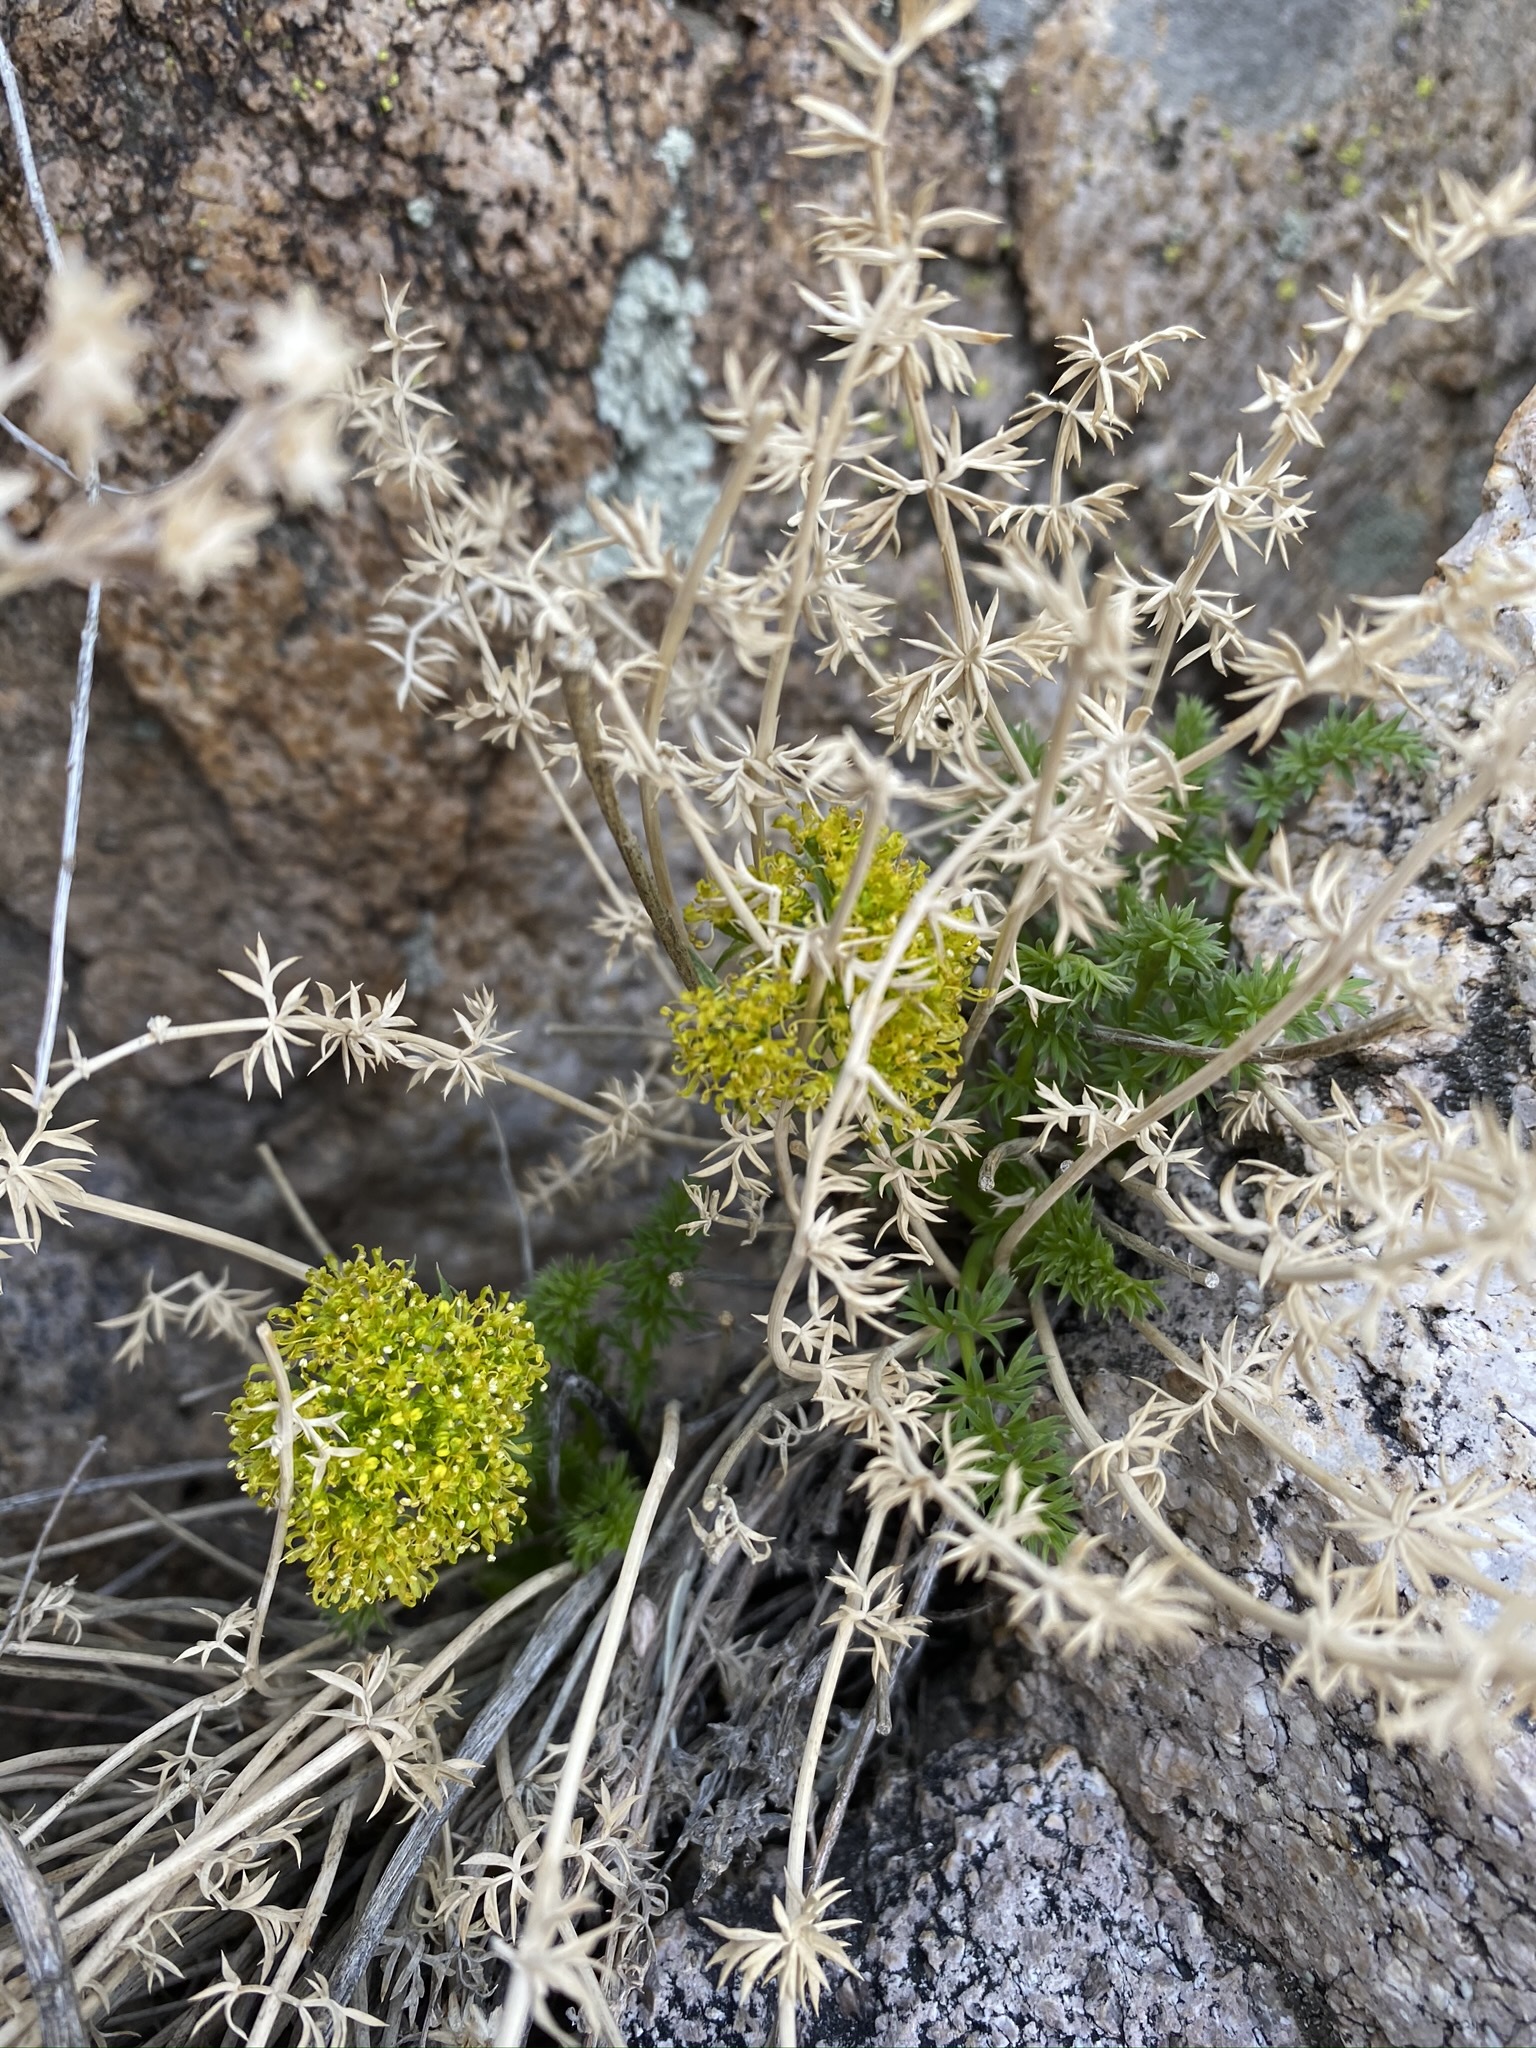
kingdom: Plantae
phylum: Tracheophyta
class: Magnoliopsida
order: Apiales
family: Apiaceae
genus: Lomatium
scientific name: Lomatium parryi
